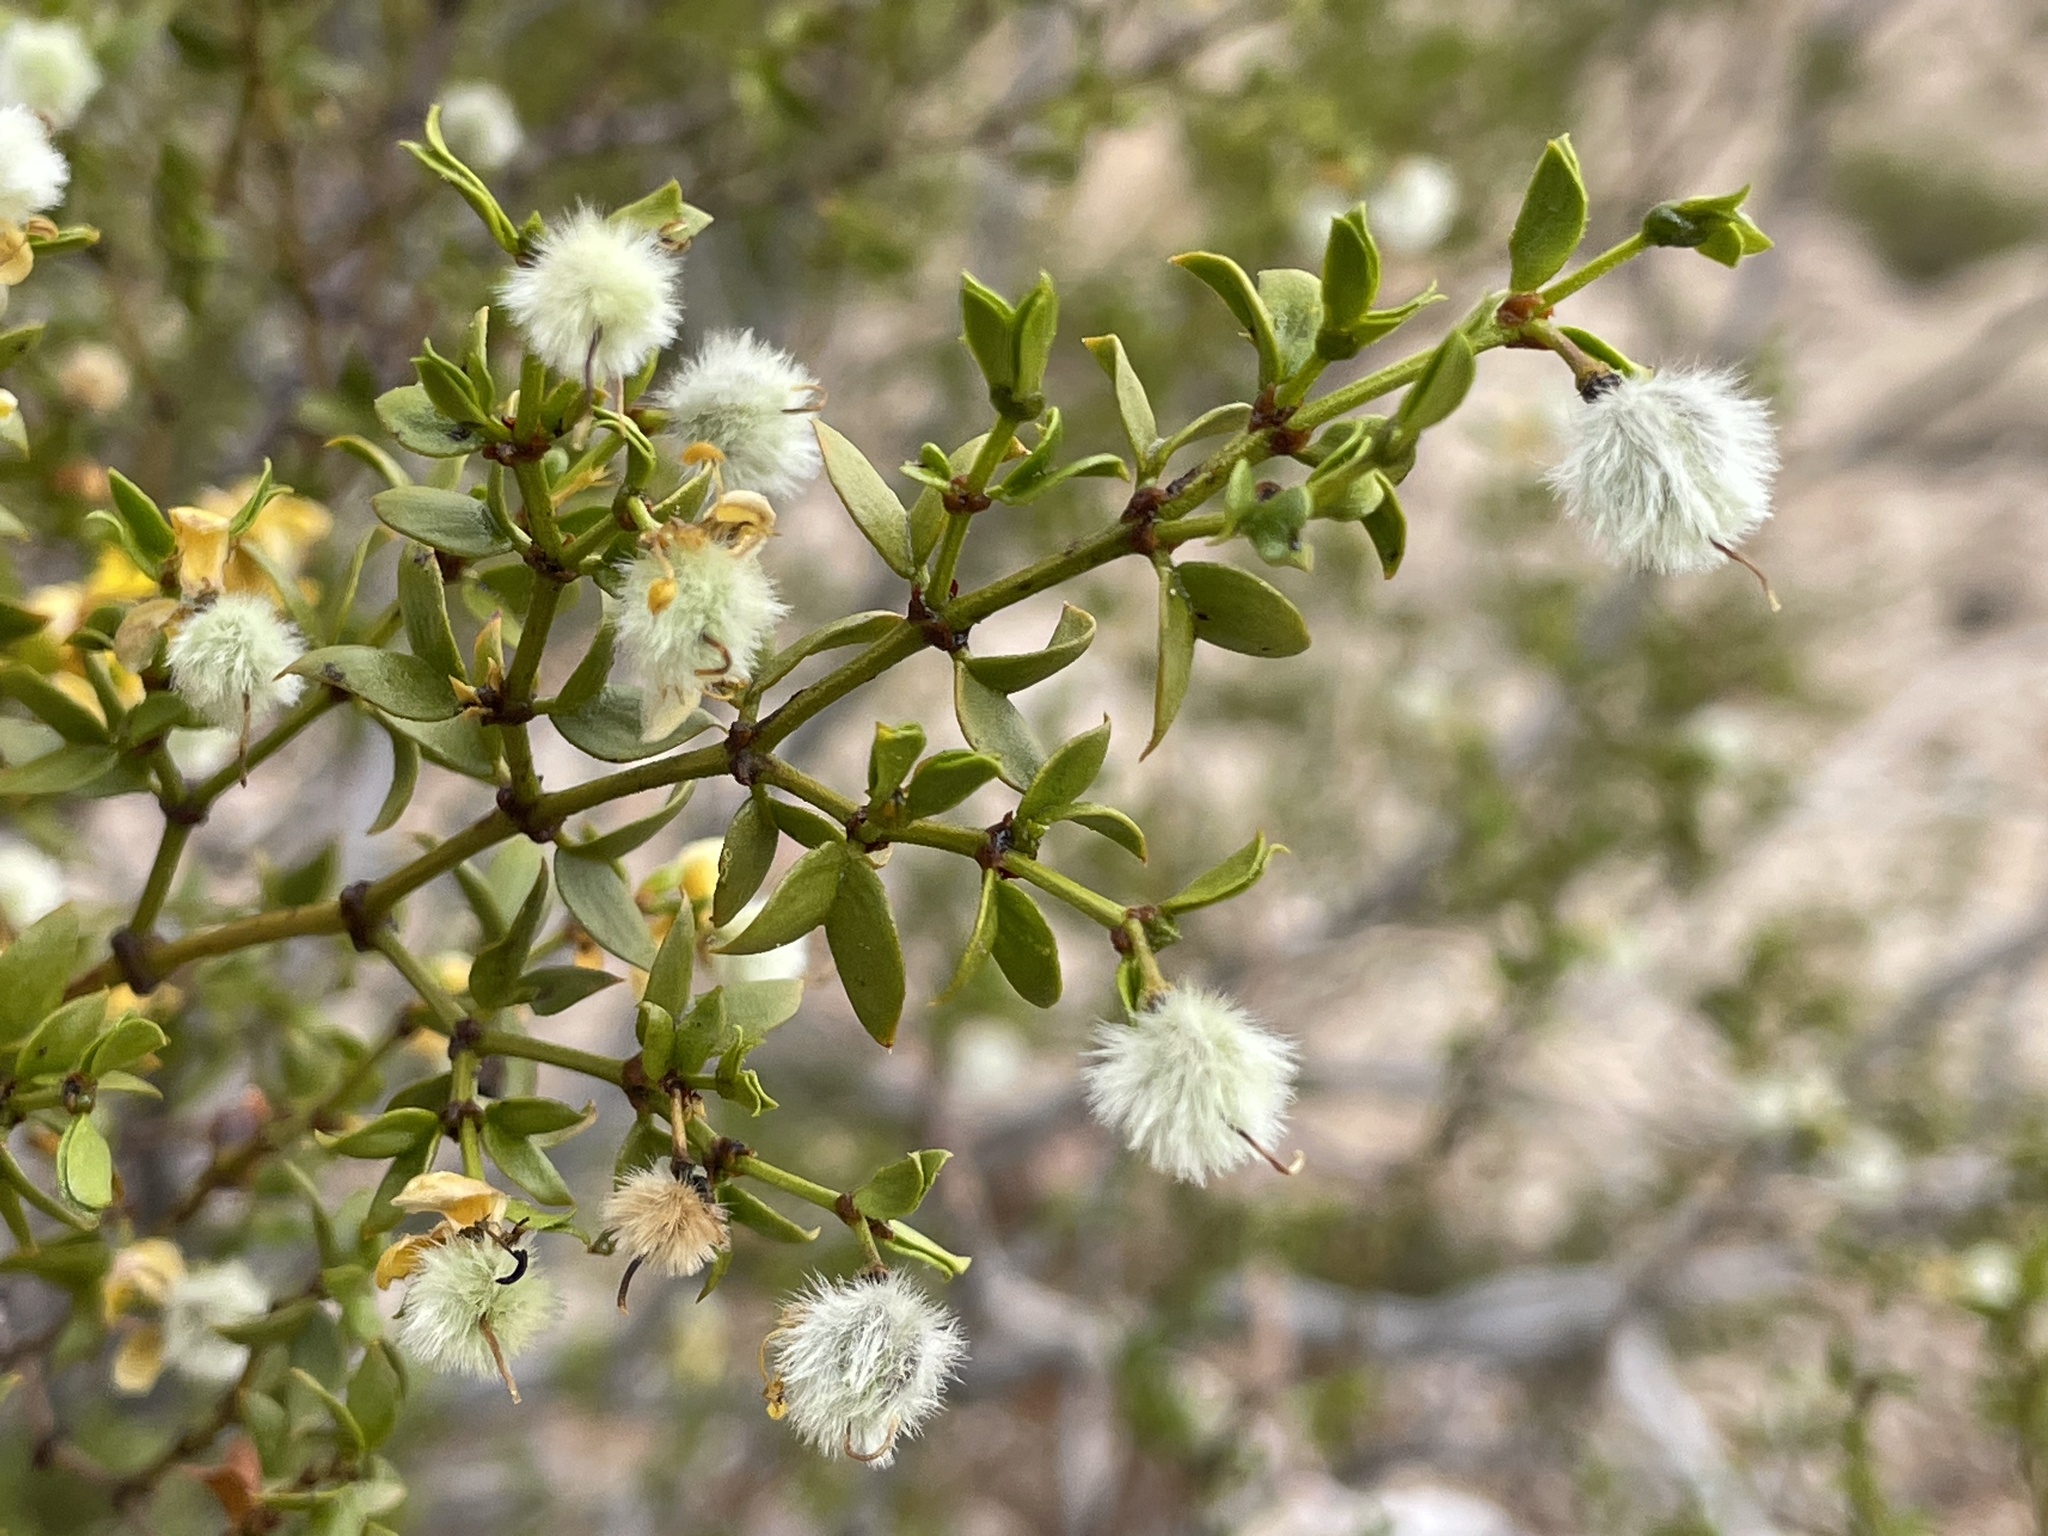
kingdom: Plantae
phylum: Tracheophyta
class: Magnoliopsida
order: Zygophyllales
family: Zygophyllaceae
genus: Larrea
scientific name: Larrea tridentata
